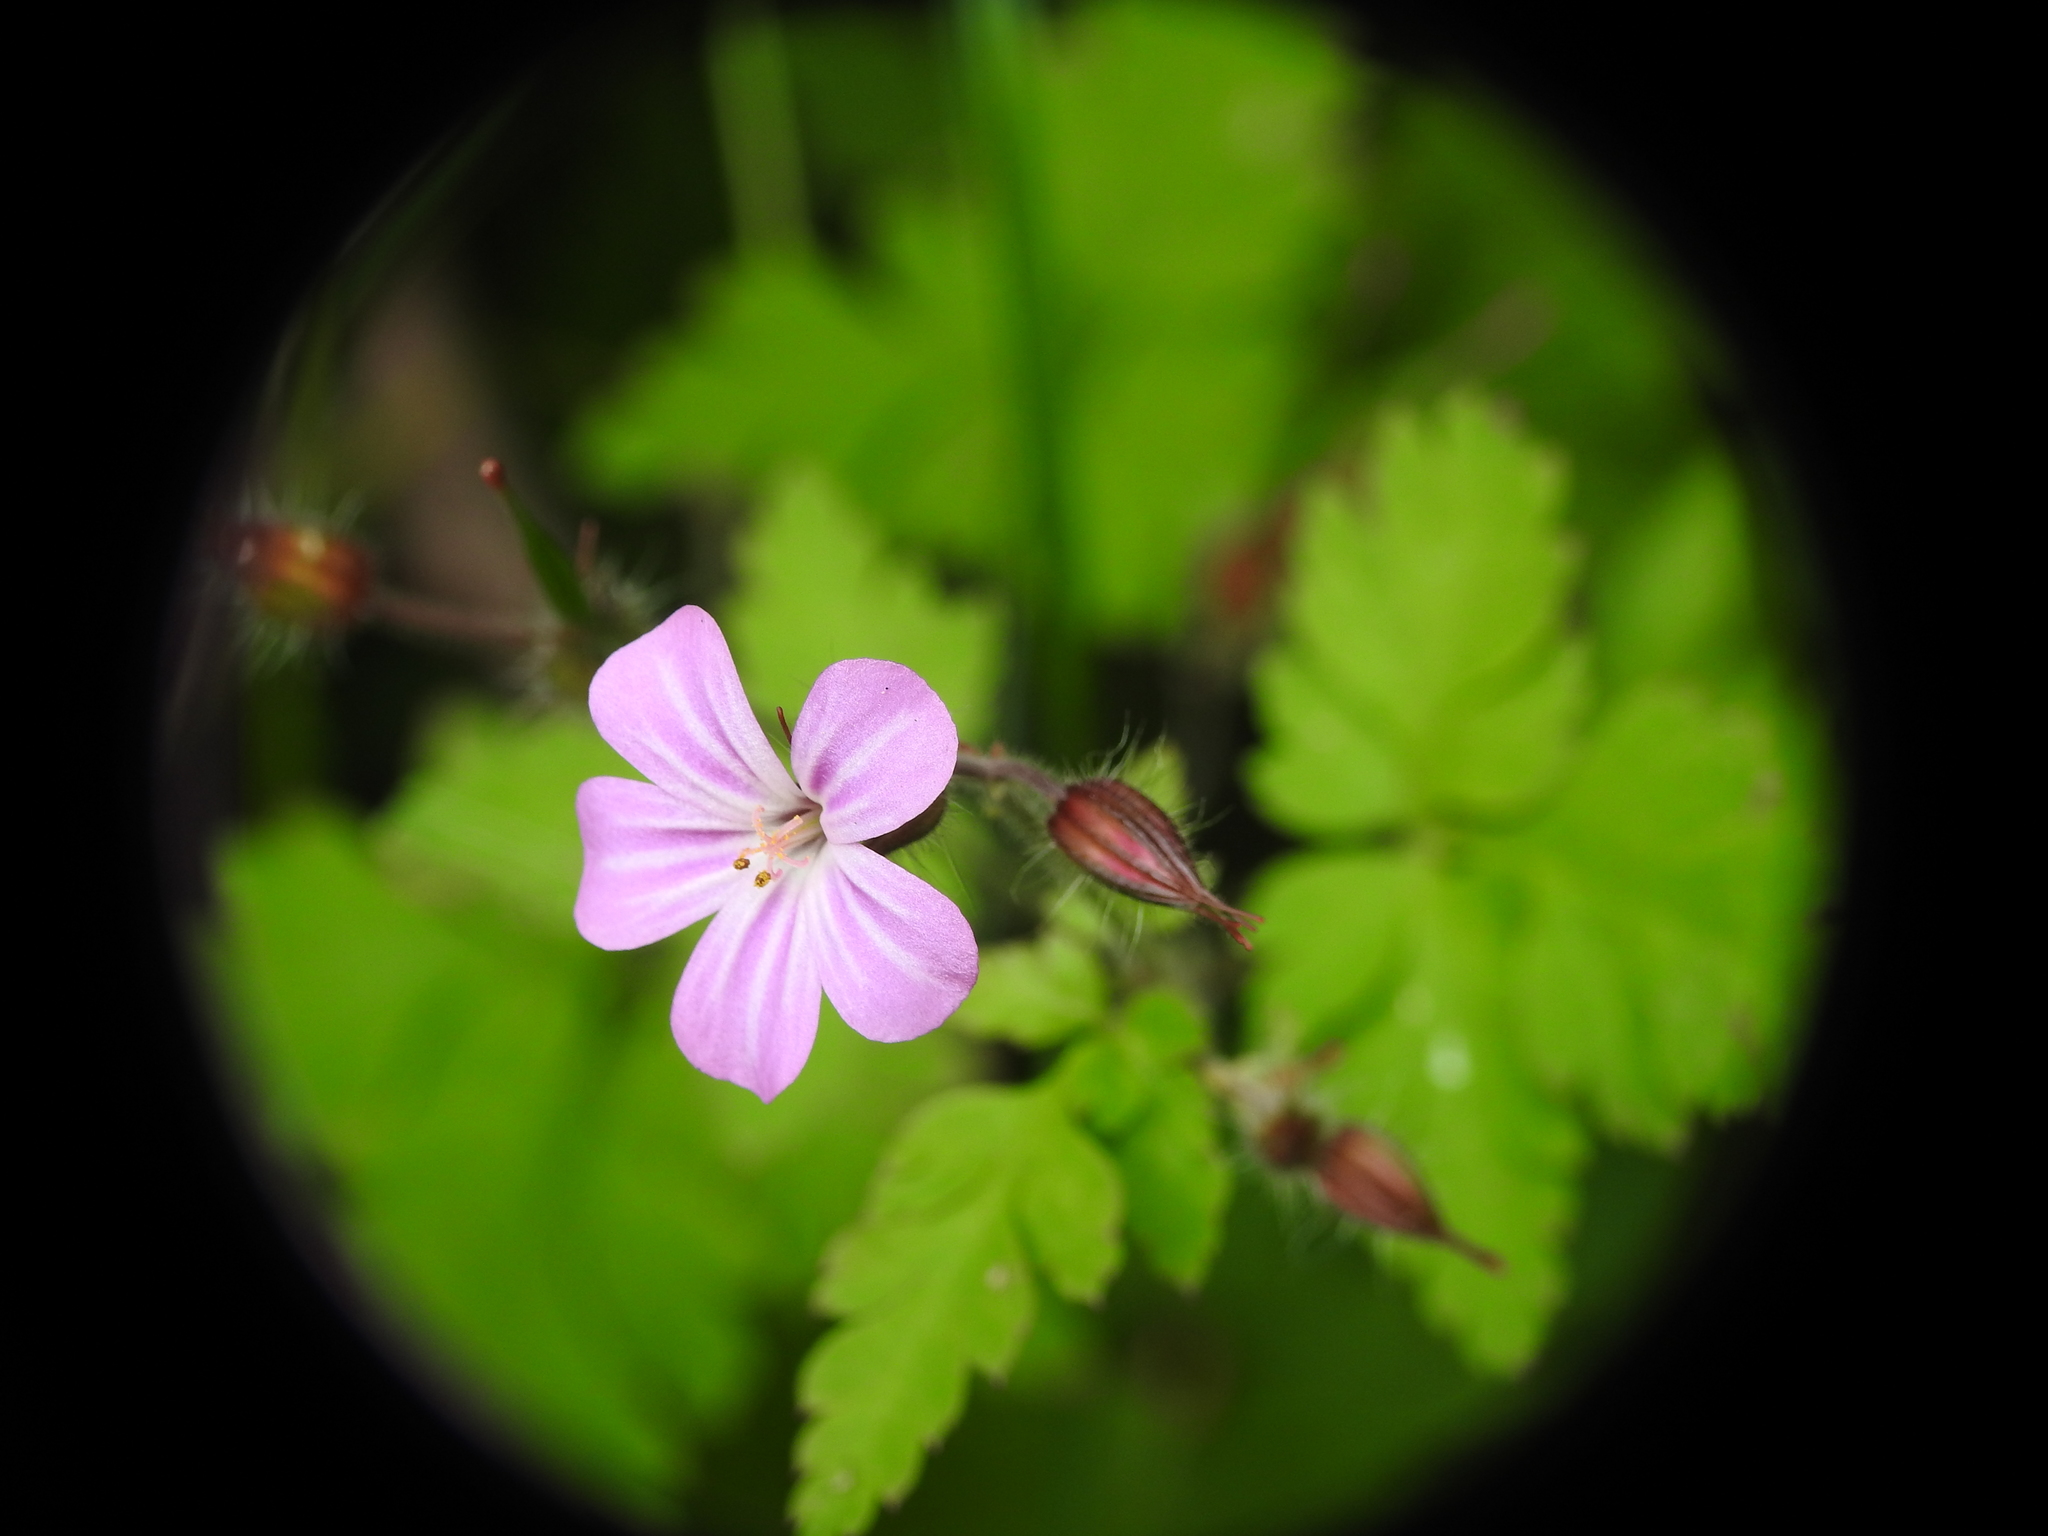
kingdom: Plantae
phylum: Tracheophyta
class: Magnoliopsida
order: Geraniales
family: Geraniaceae
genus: Geranium
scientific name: Geranium robertianum
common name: Herb-robert
